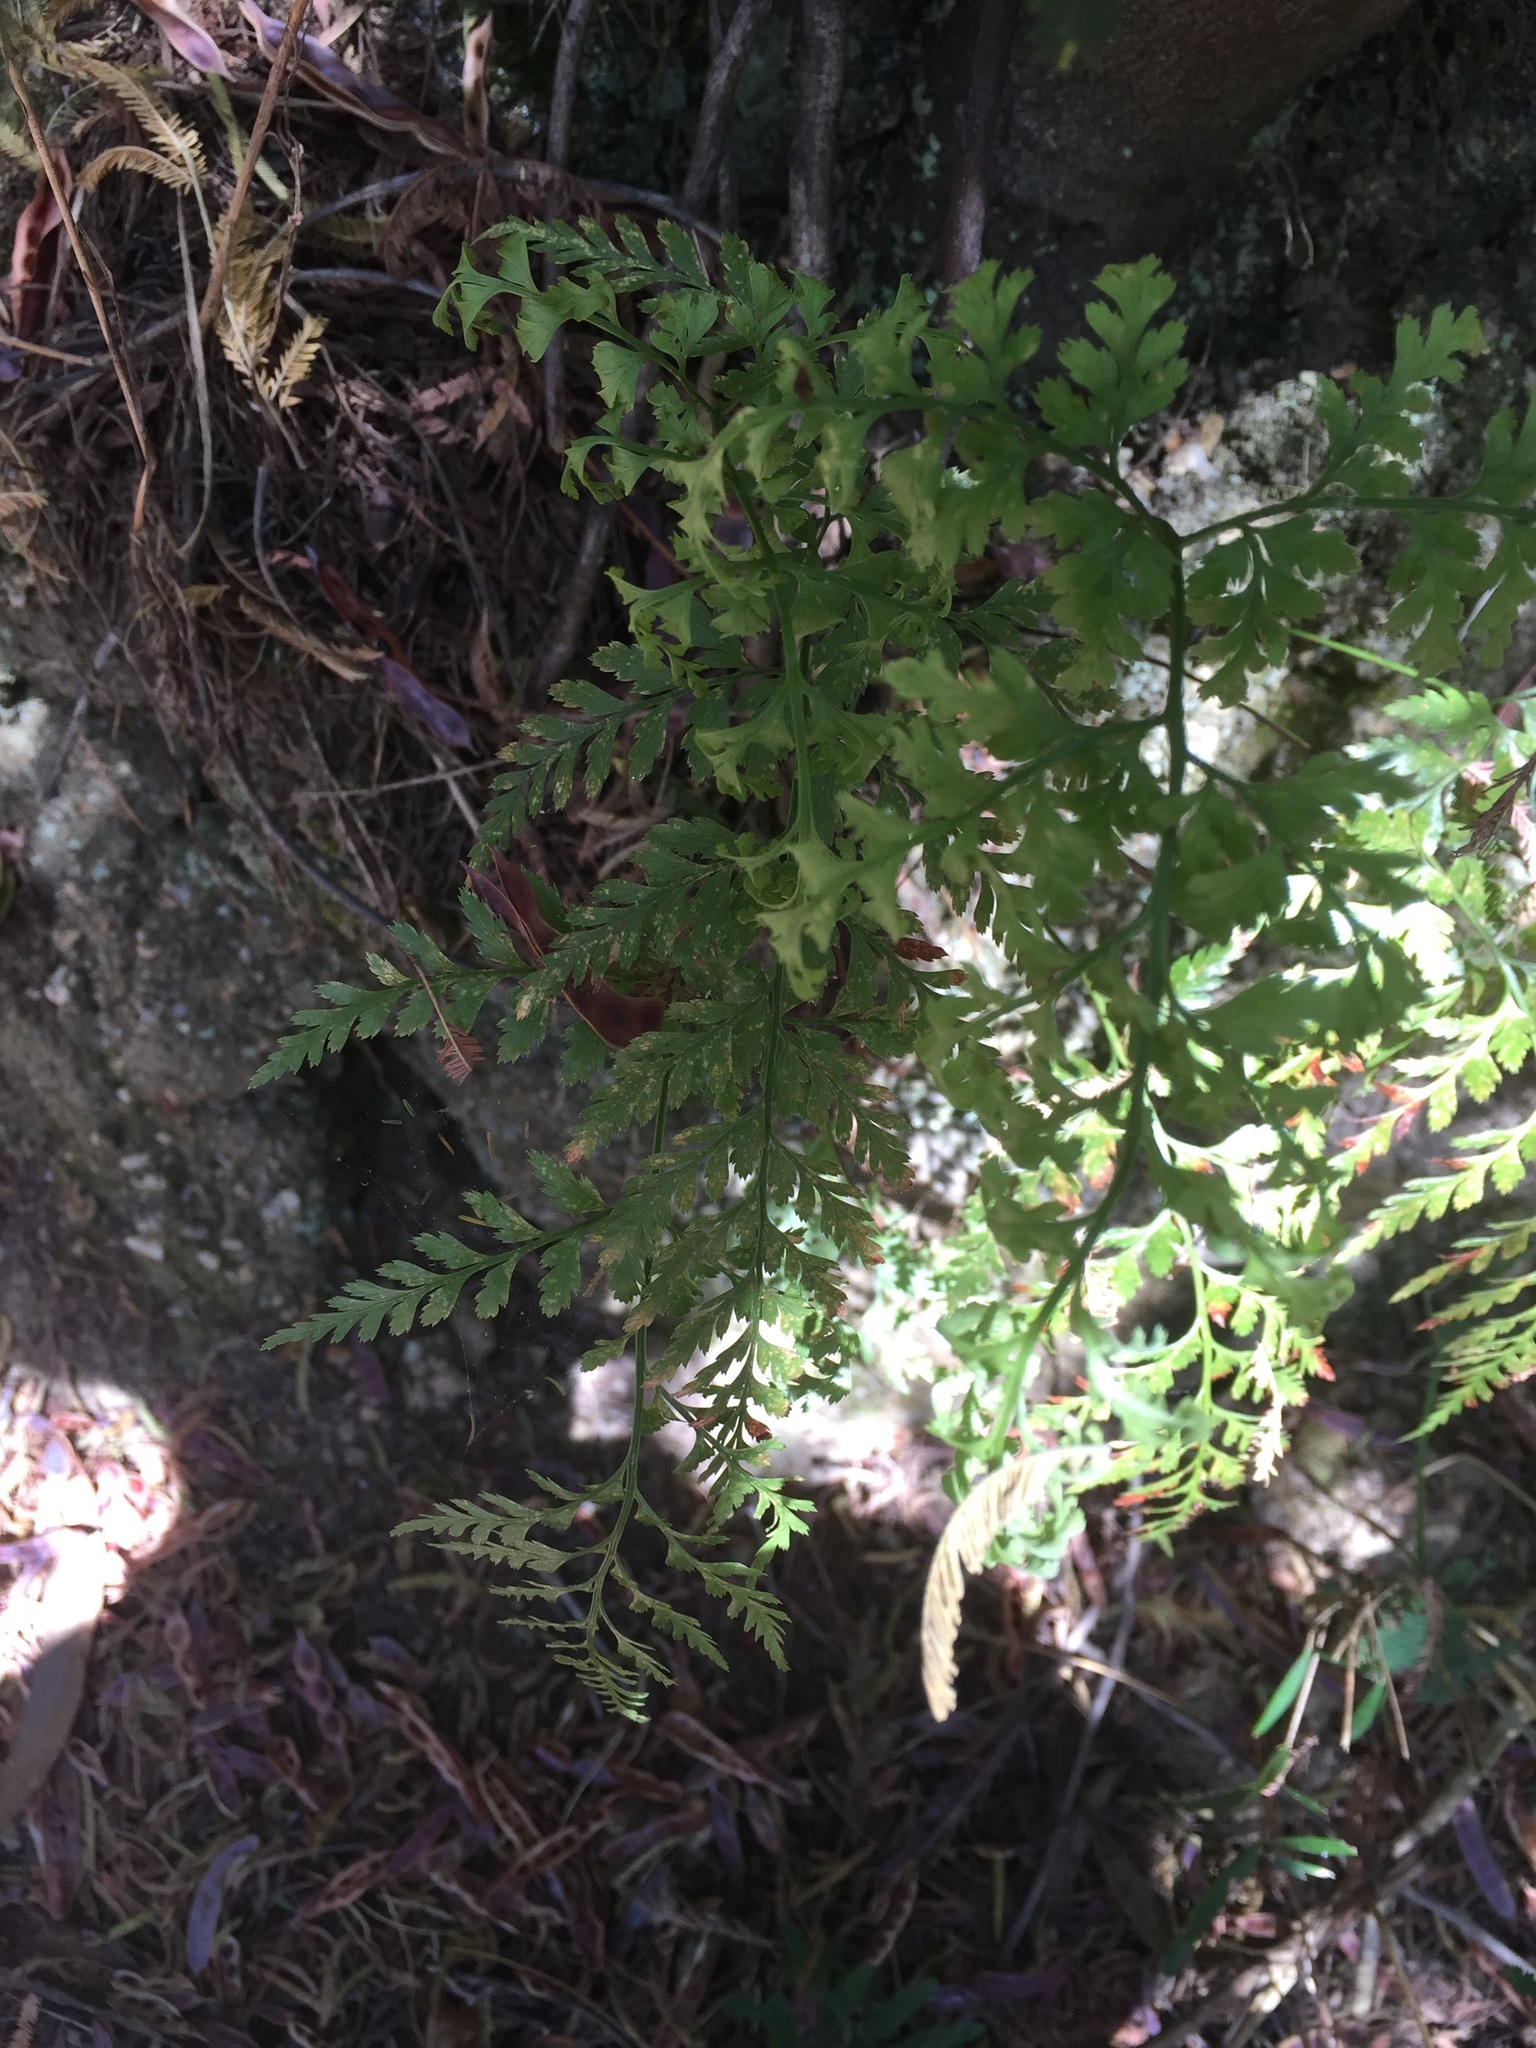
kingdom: Plantae
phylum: Tracheophyta
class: Polypodiopsida
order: Polypodiales
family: Aspleniaceae
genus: Asplenium
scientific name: Asplenium onopteris
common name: Irish spleenwort
